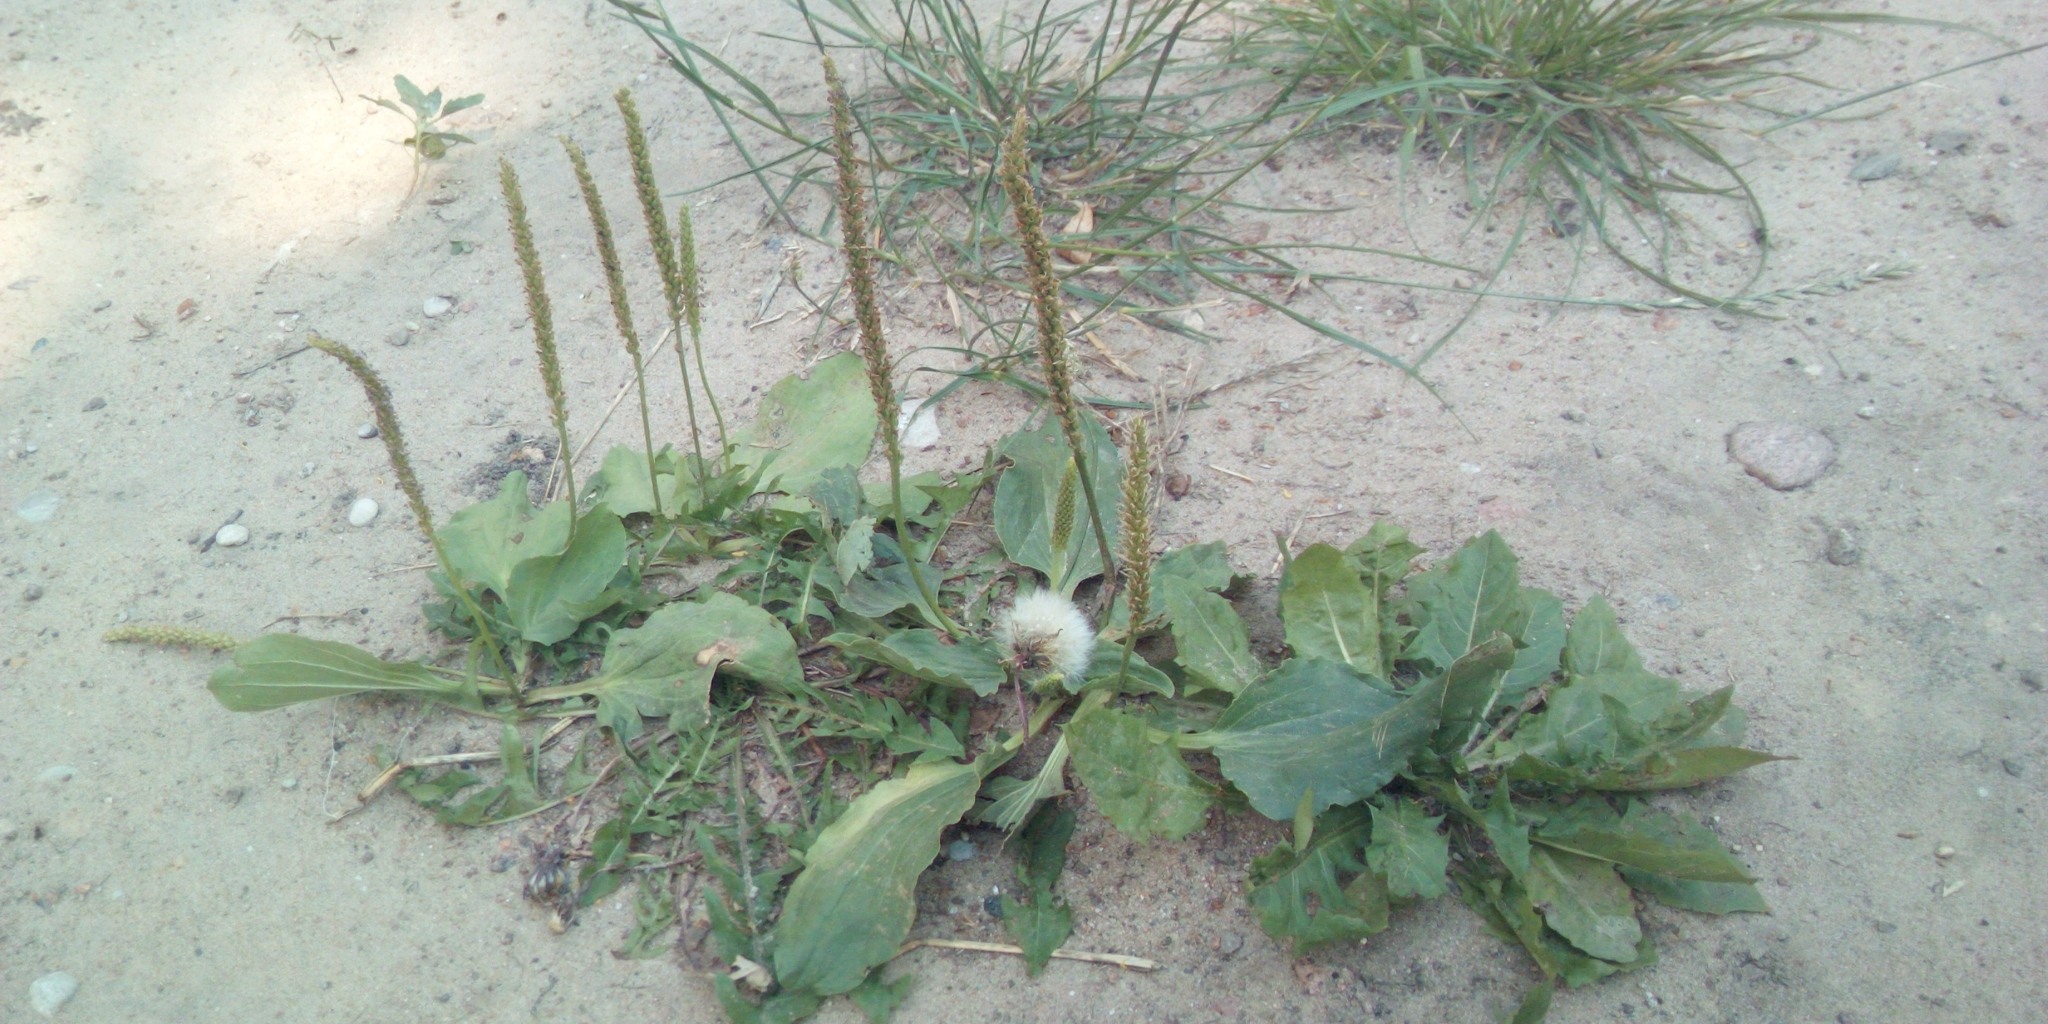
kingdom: Plantae
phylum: Tracheophyta
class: Magnoliopsida
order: Lamiales
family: Plantaginaceae
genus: Plantago
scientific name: Plantago major
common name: Common plantain
